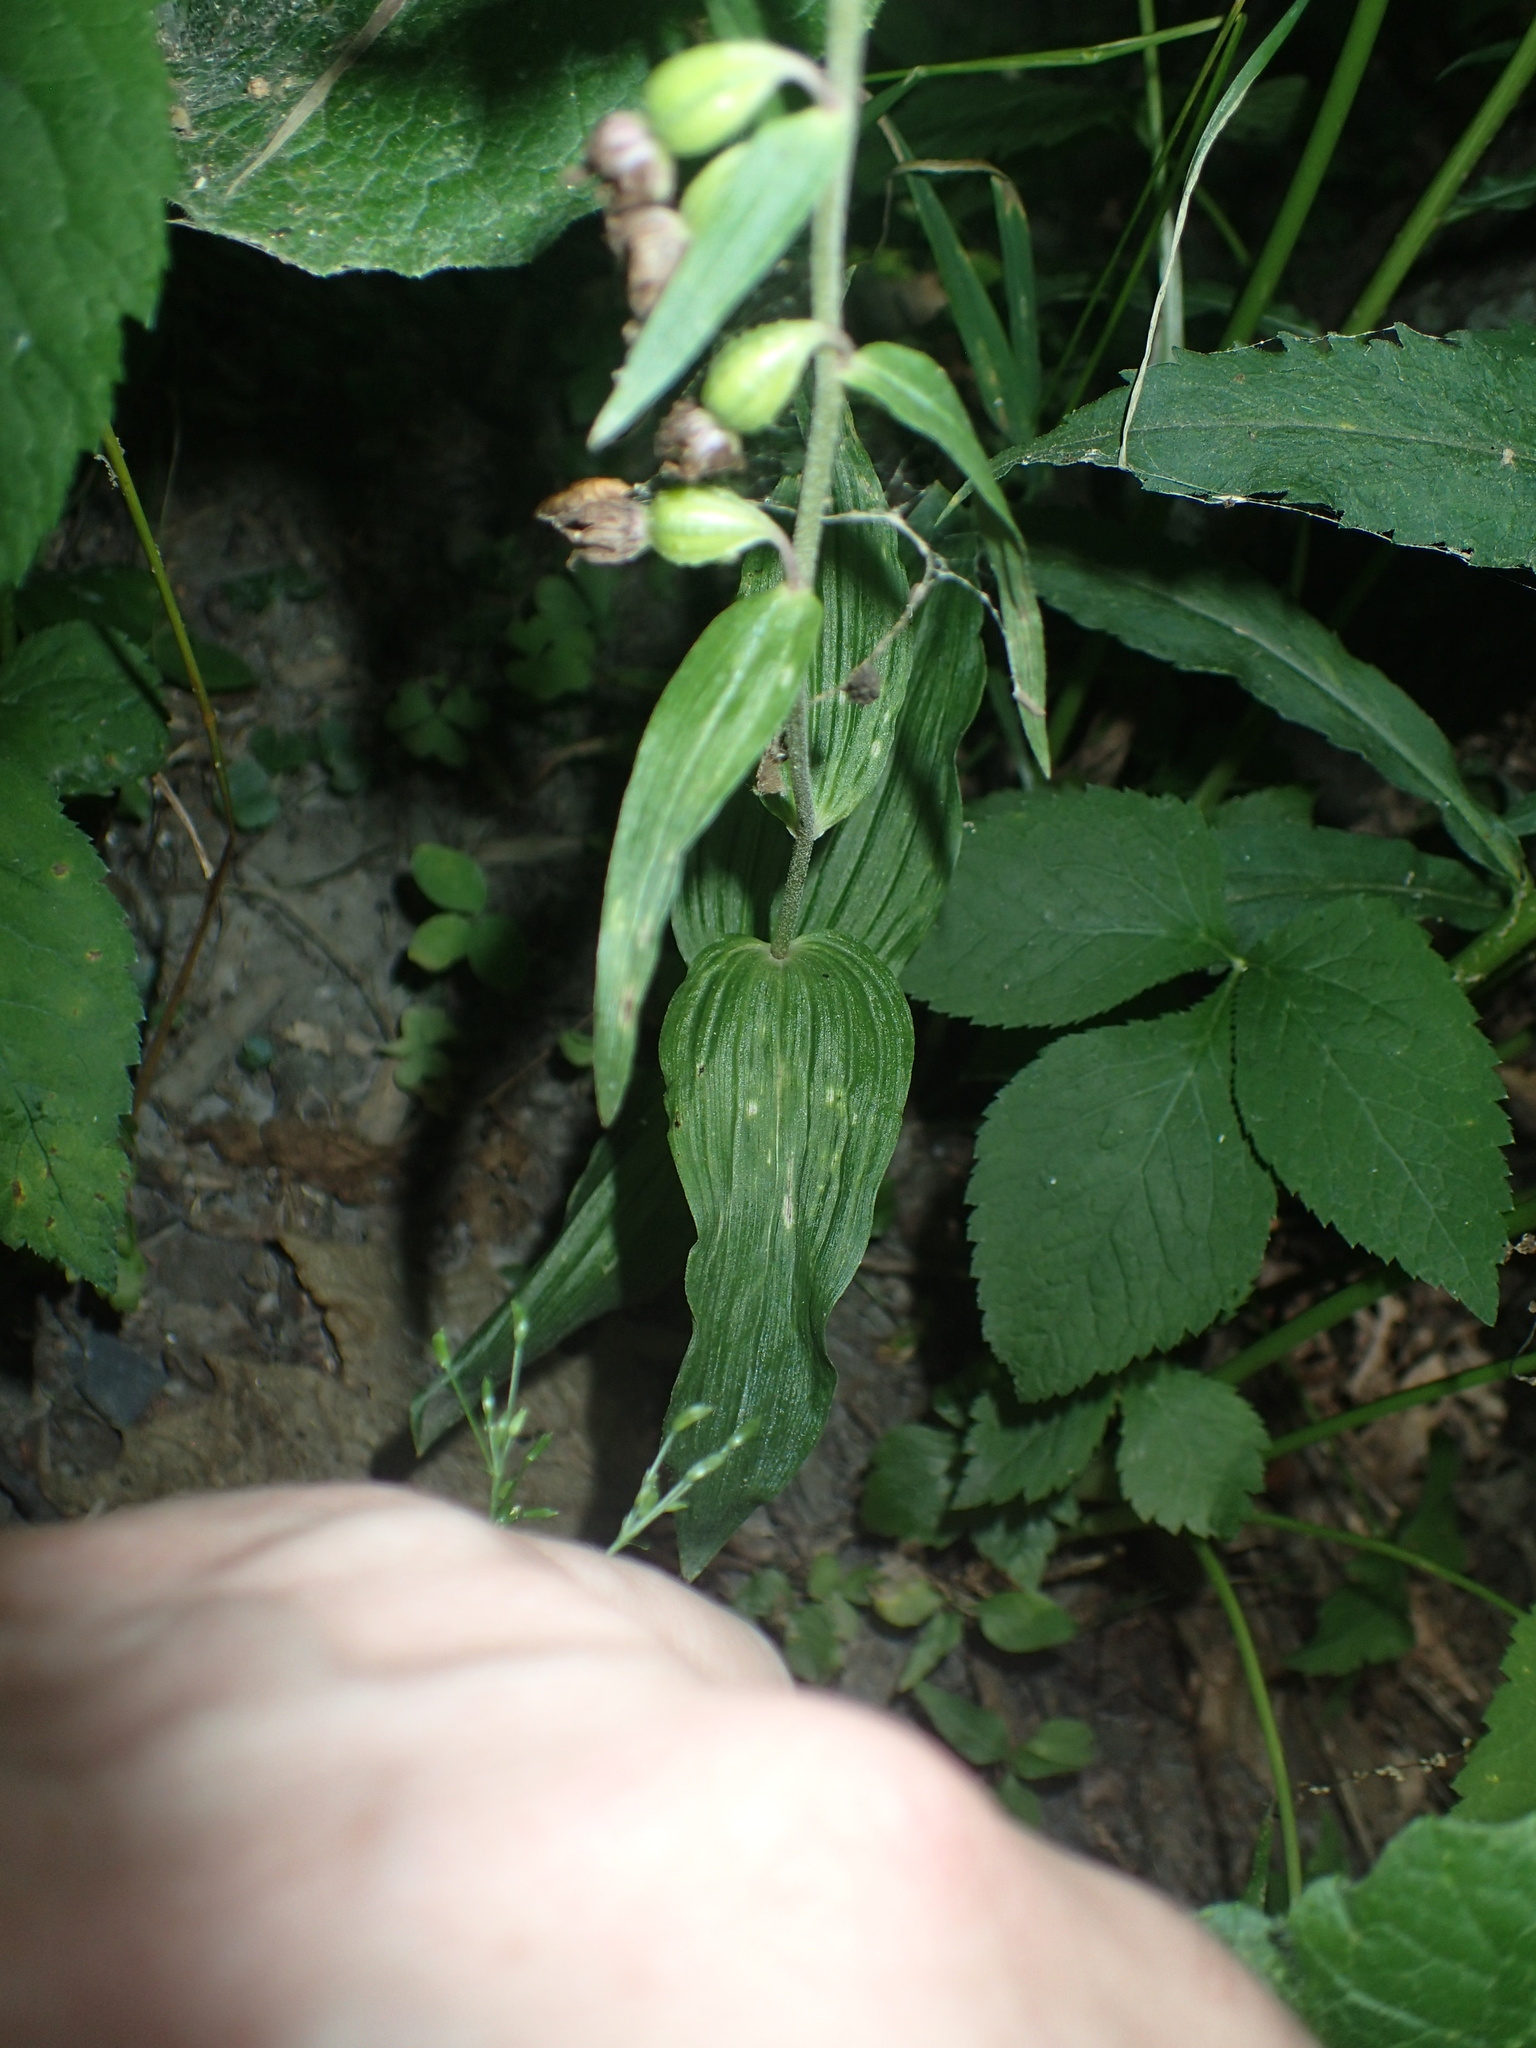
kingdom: Plantae
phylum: Tracheophyta
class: Liliopsida
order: Asparagales
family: Orchidaceae
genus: Epipactis
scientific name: Epipactis helleborine
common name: Broad-leaved helleborine
